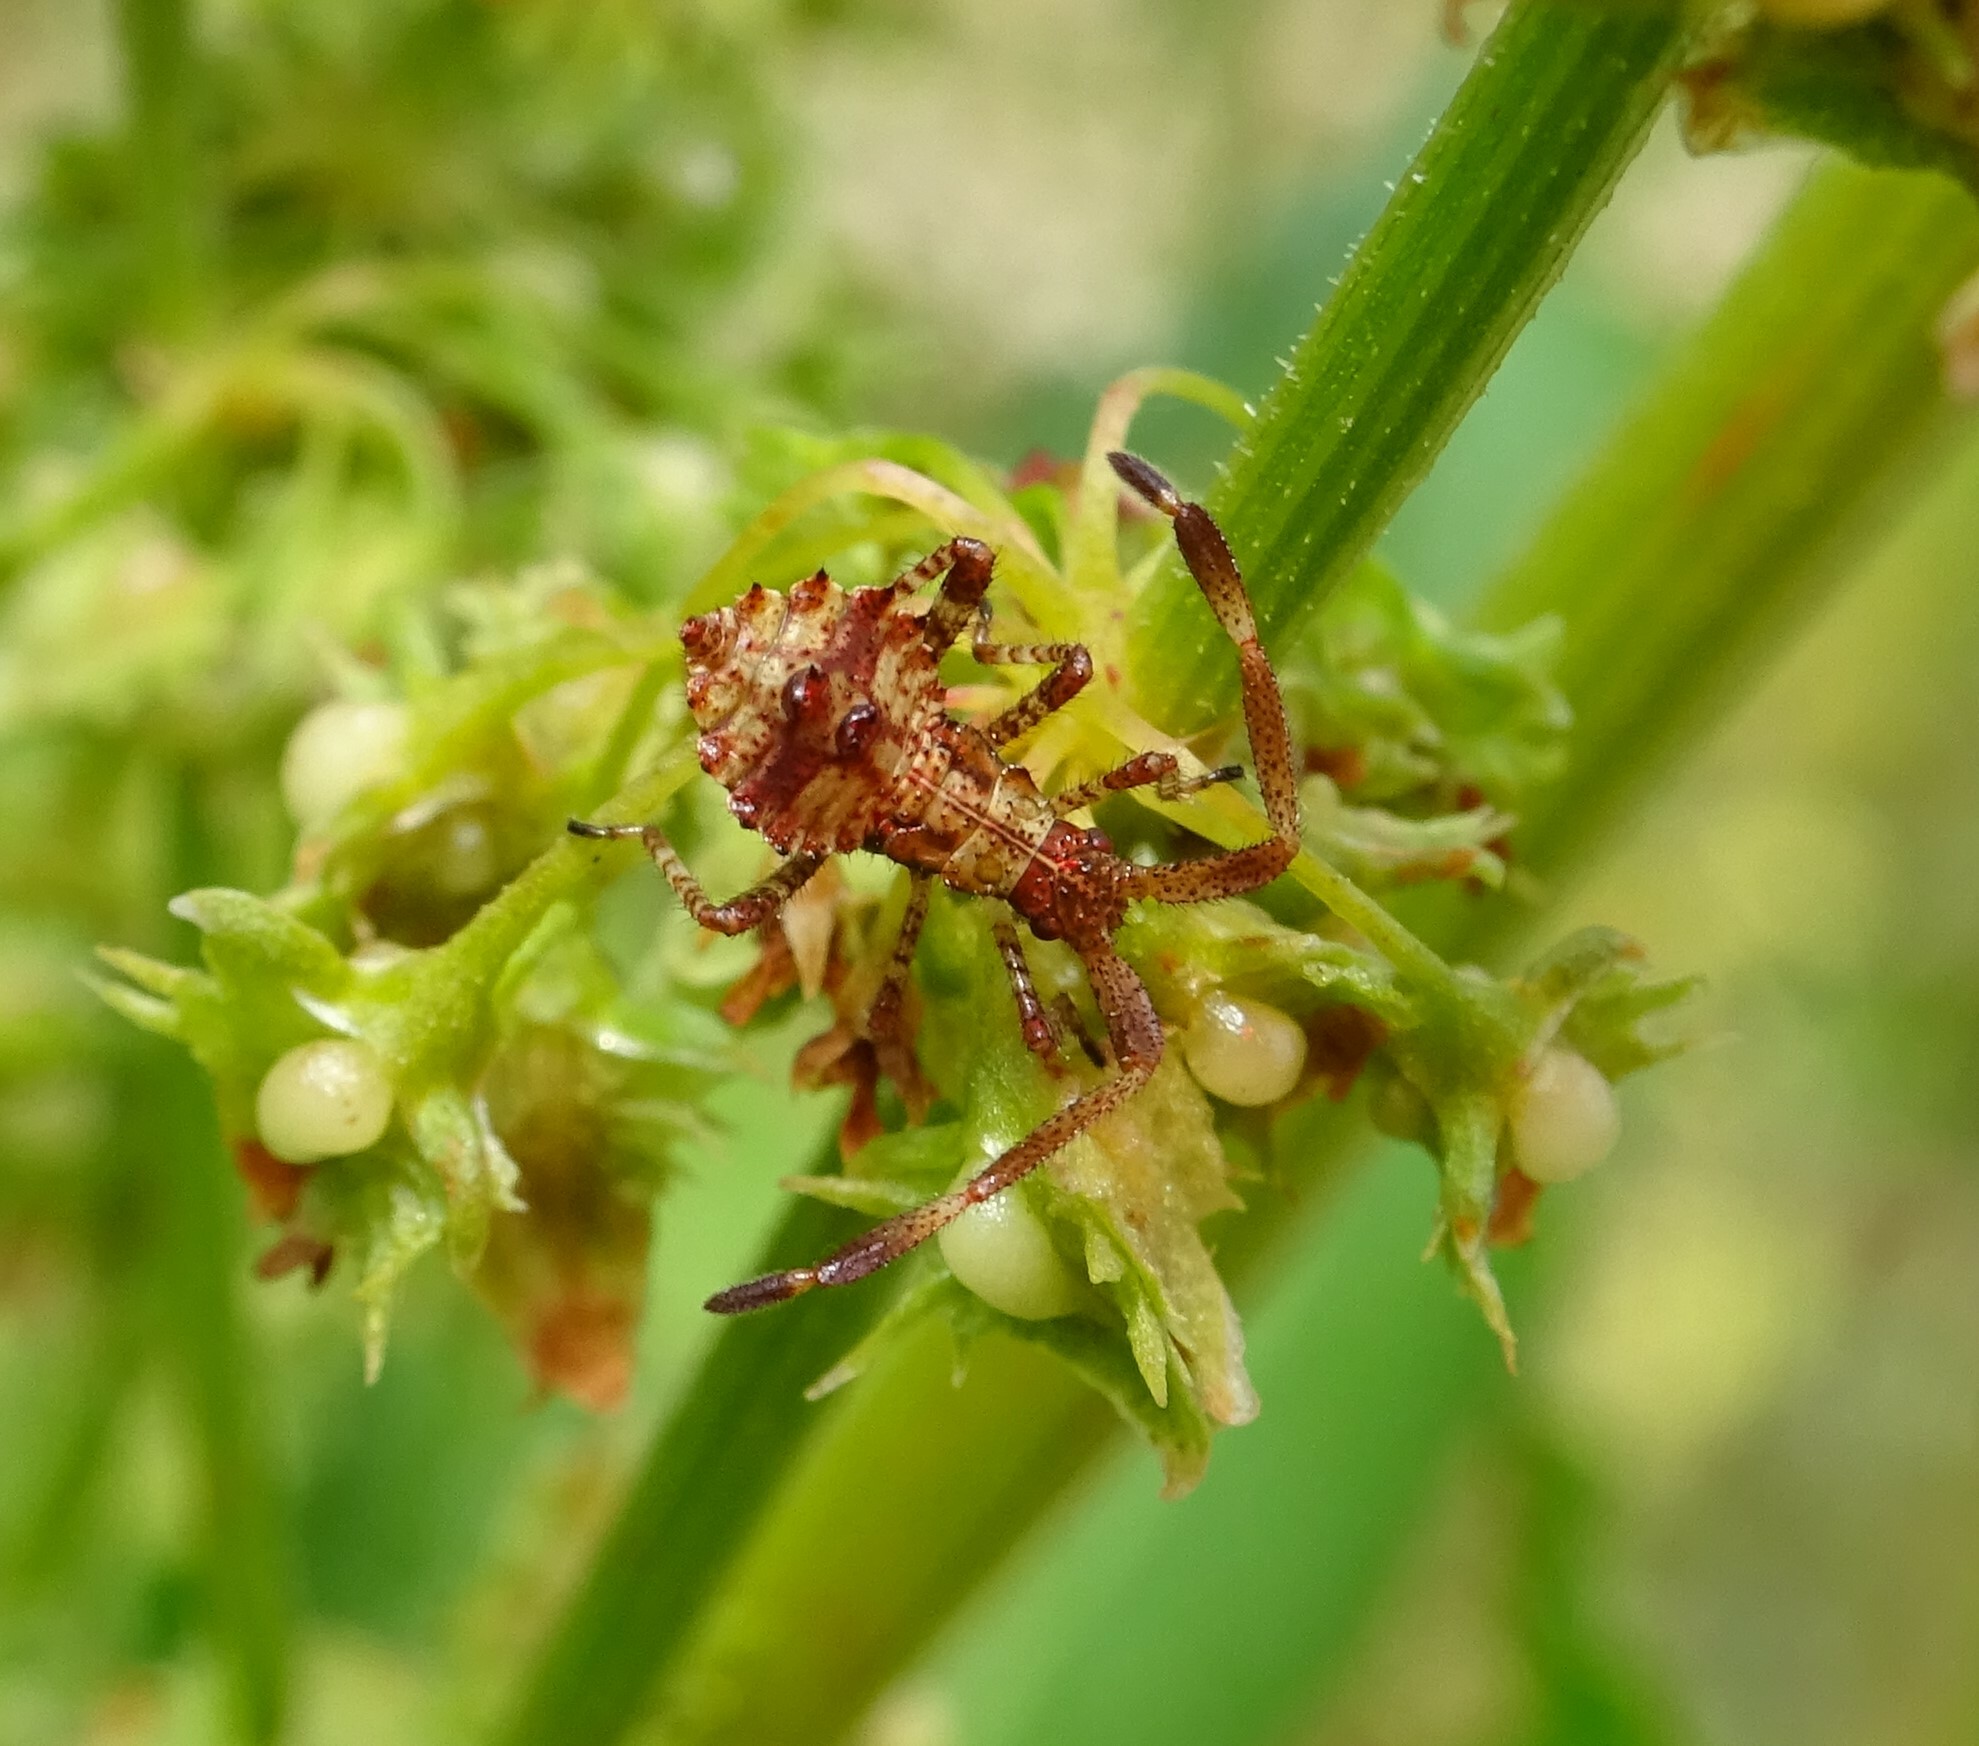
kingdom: Animalia
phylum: Arthropoda
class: Insecta
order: Hemiptera
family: Coreidae
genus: Coreus
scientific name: Coreus marginatus
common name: Dock bug
